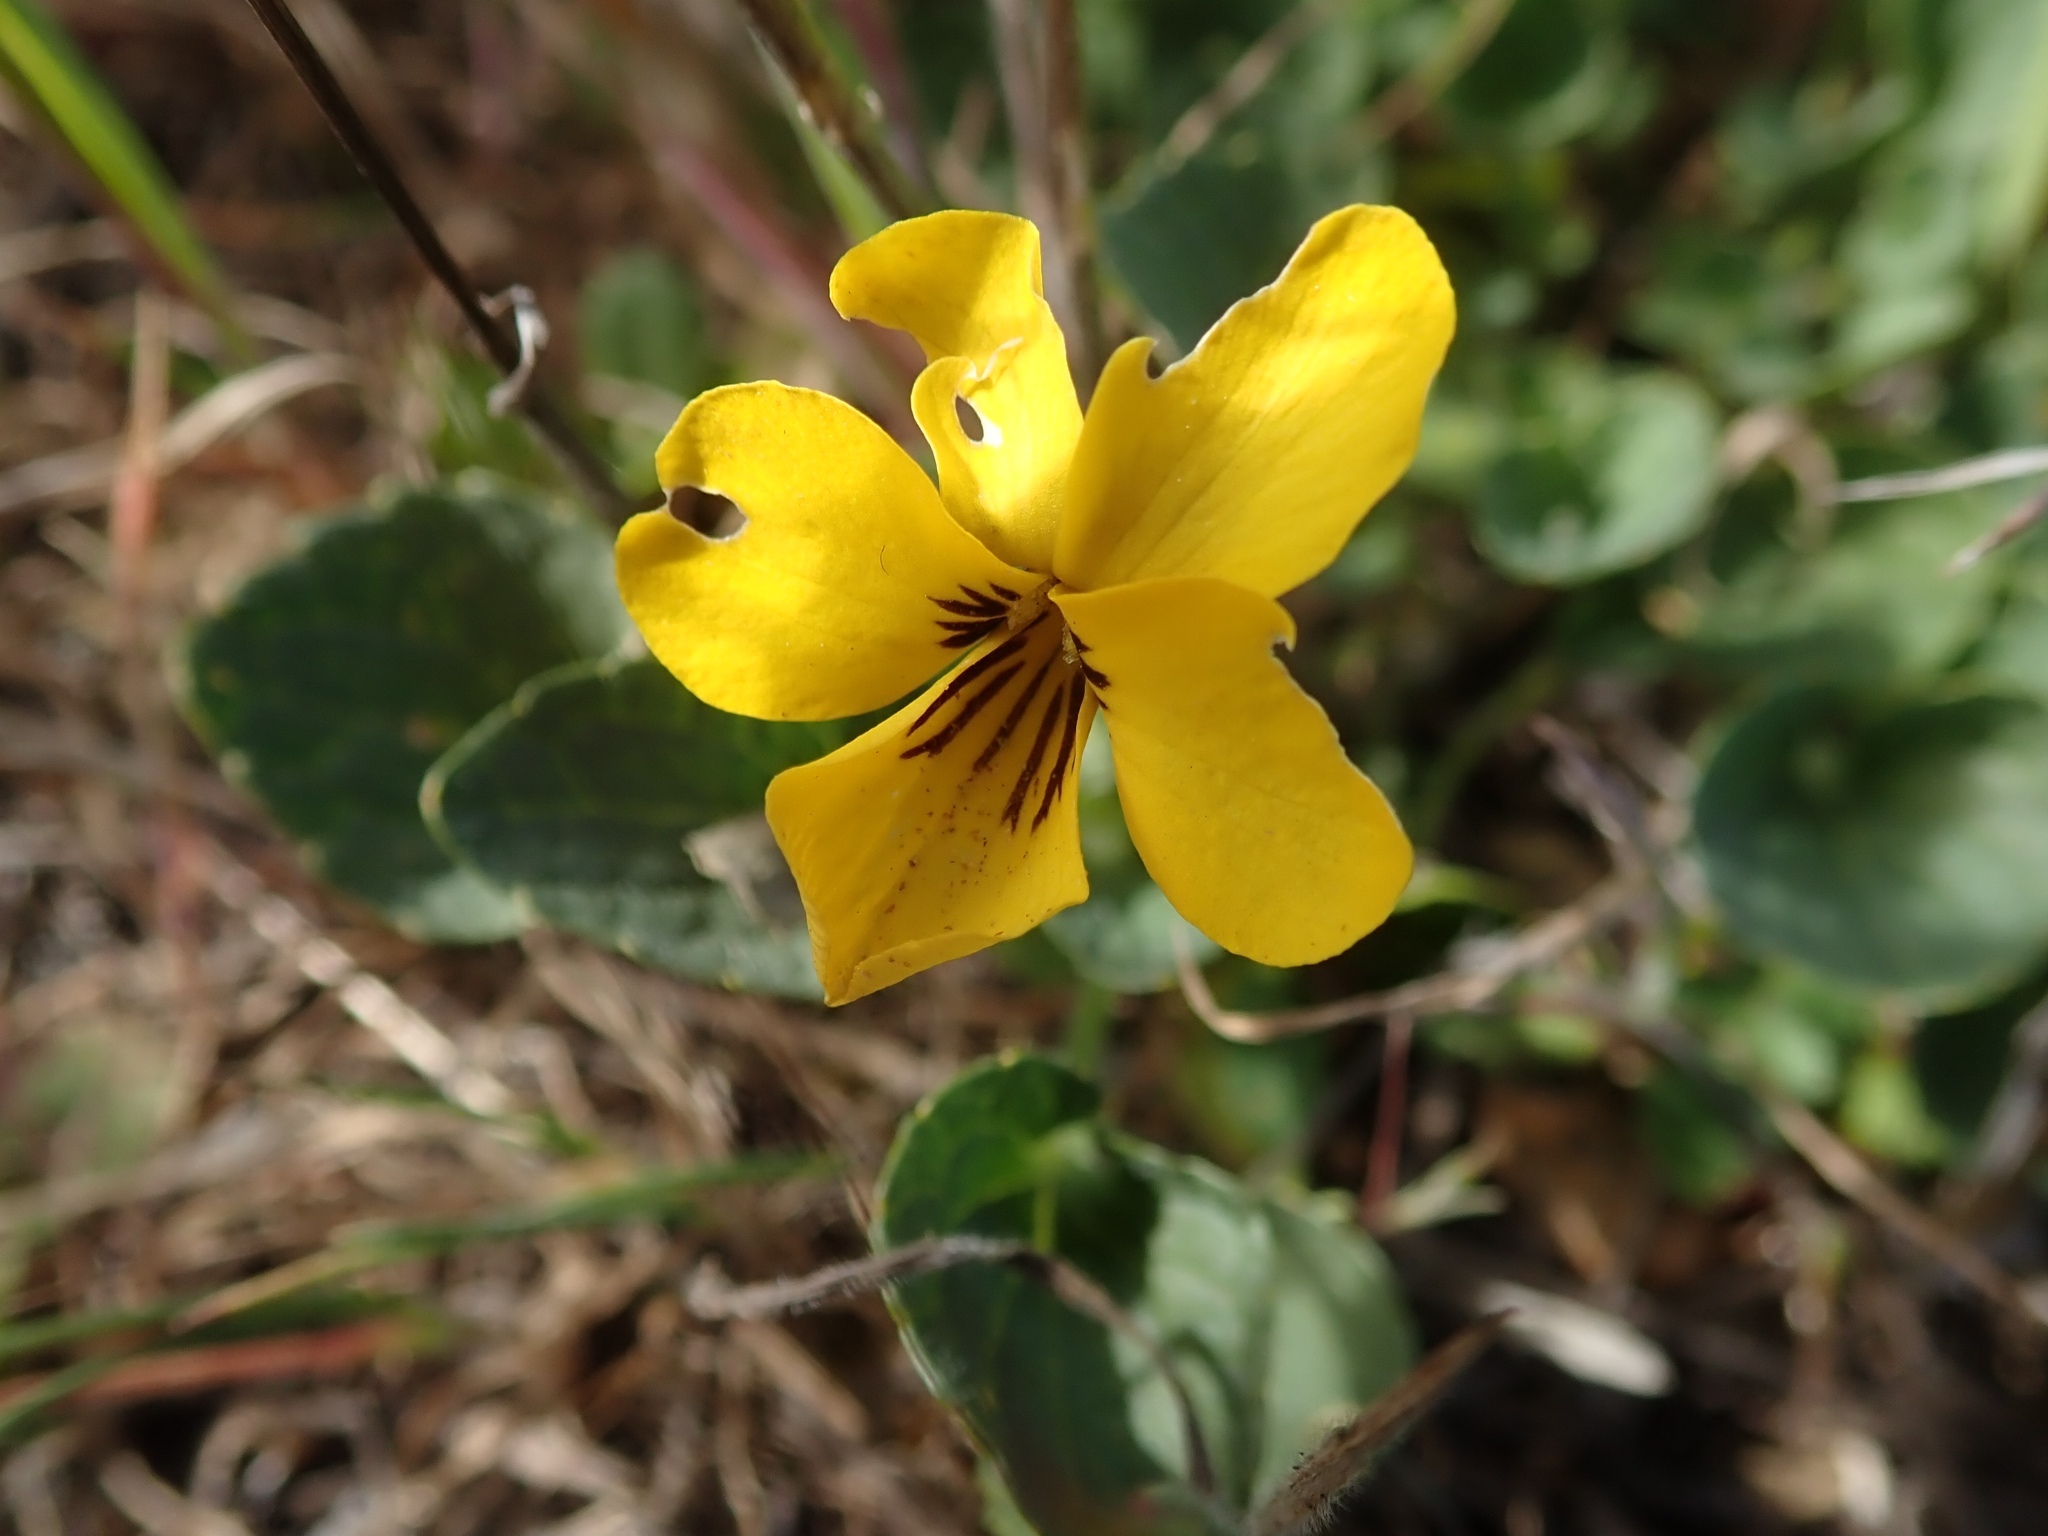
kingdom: Plantae
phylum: Tracheophyta
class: Magnoliopsida
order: Malpighiales
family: Violaceae
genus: Viola
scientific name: Viola pedunculata
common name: California golden violet
